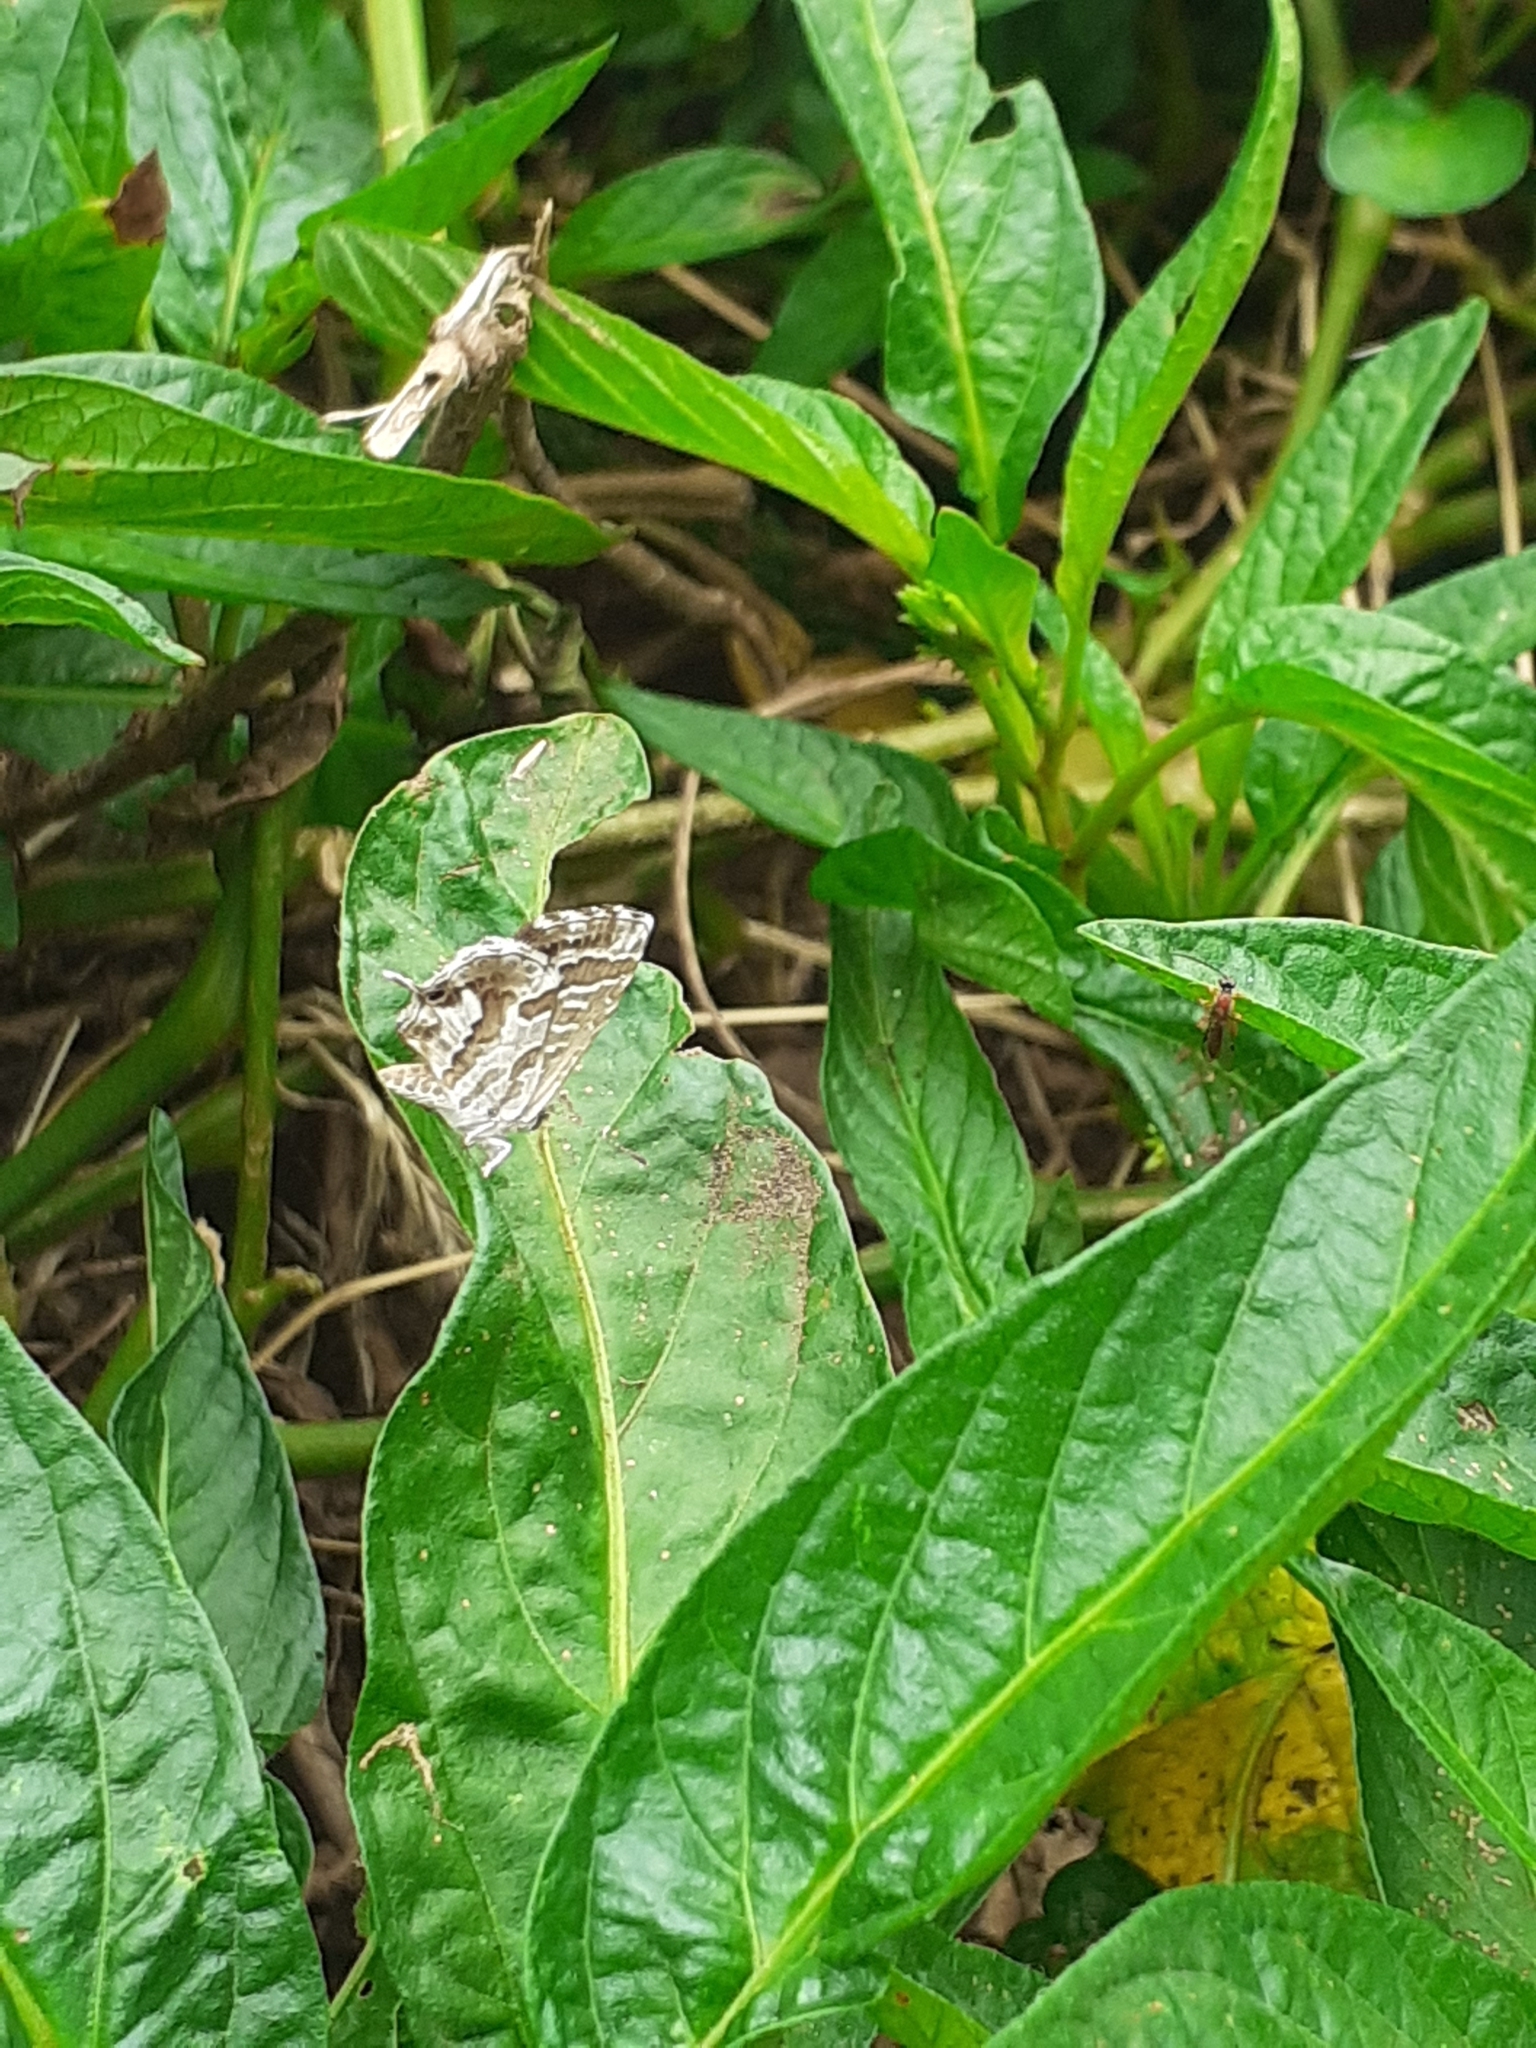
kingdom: Animalia
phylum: Arthropoda
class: Insecta
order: Lepidoptera
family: Lycaenidae
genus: Cacyreus
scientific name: Cacyreus marshalli
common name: Geranium bronze
